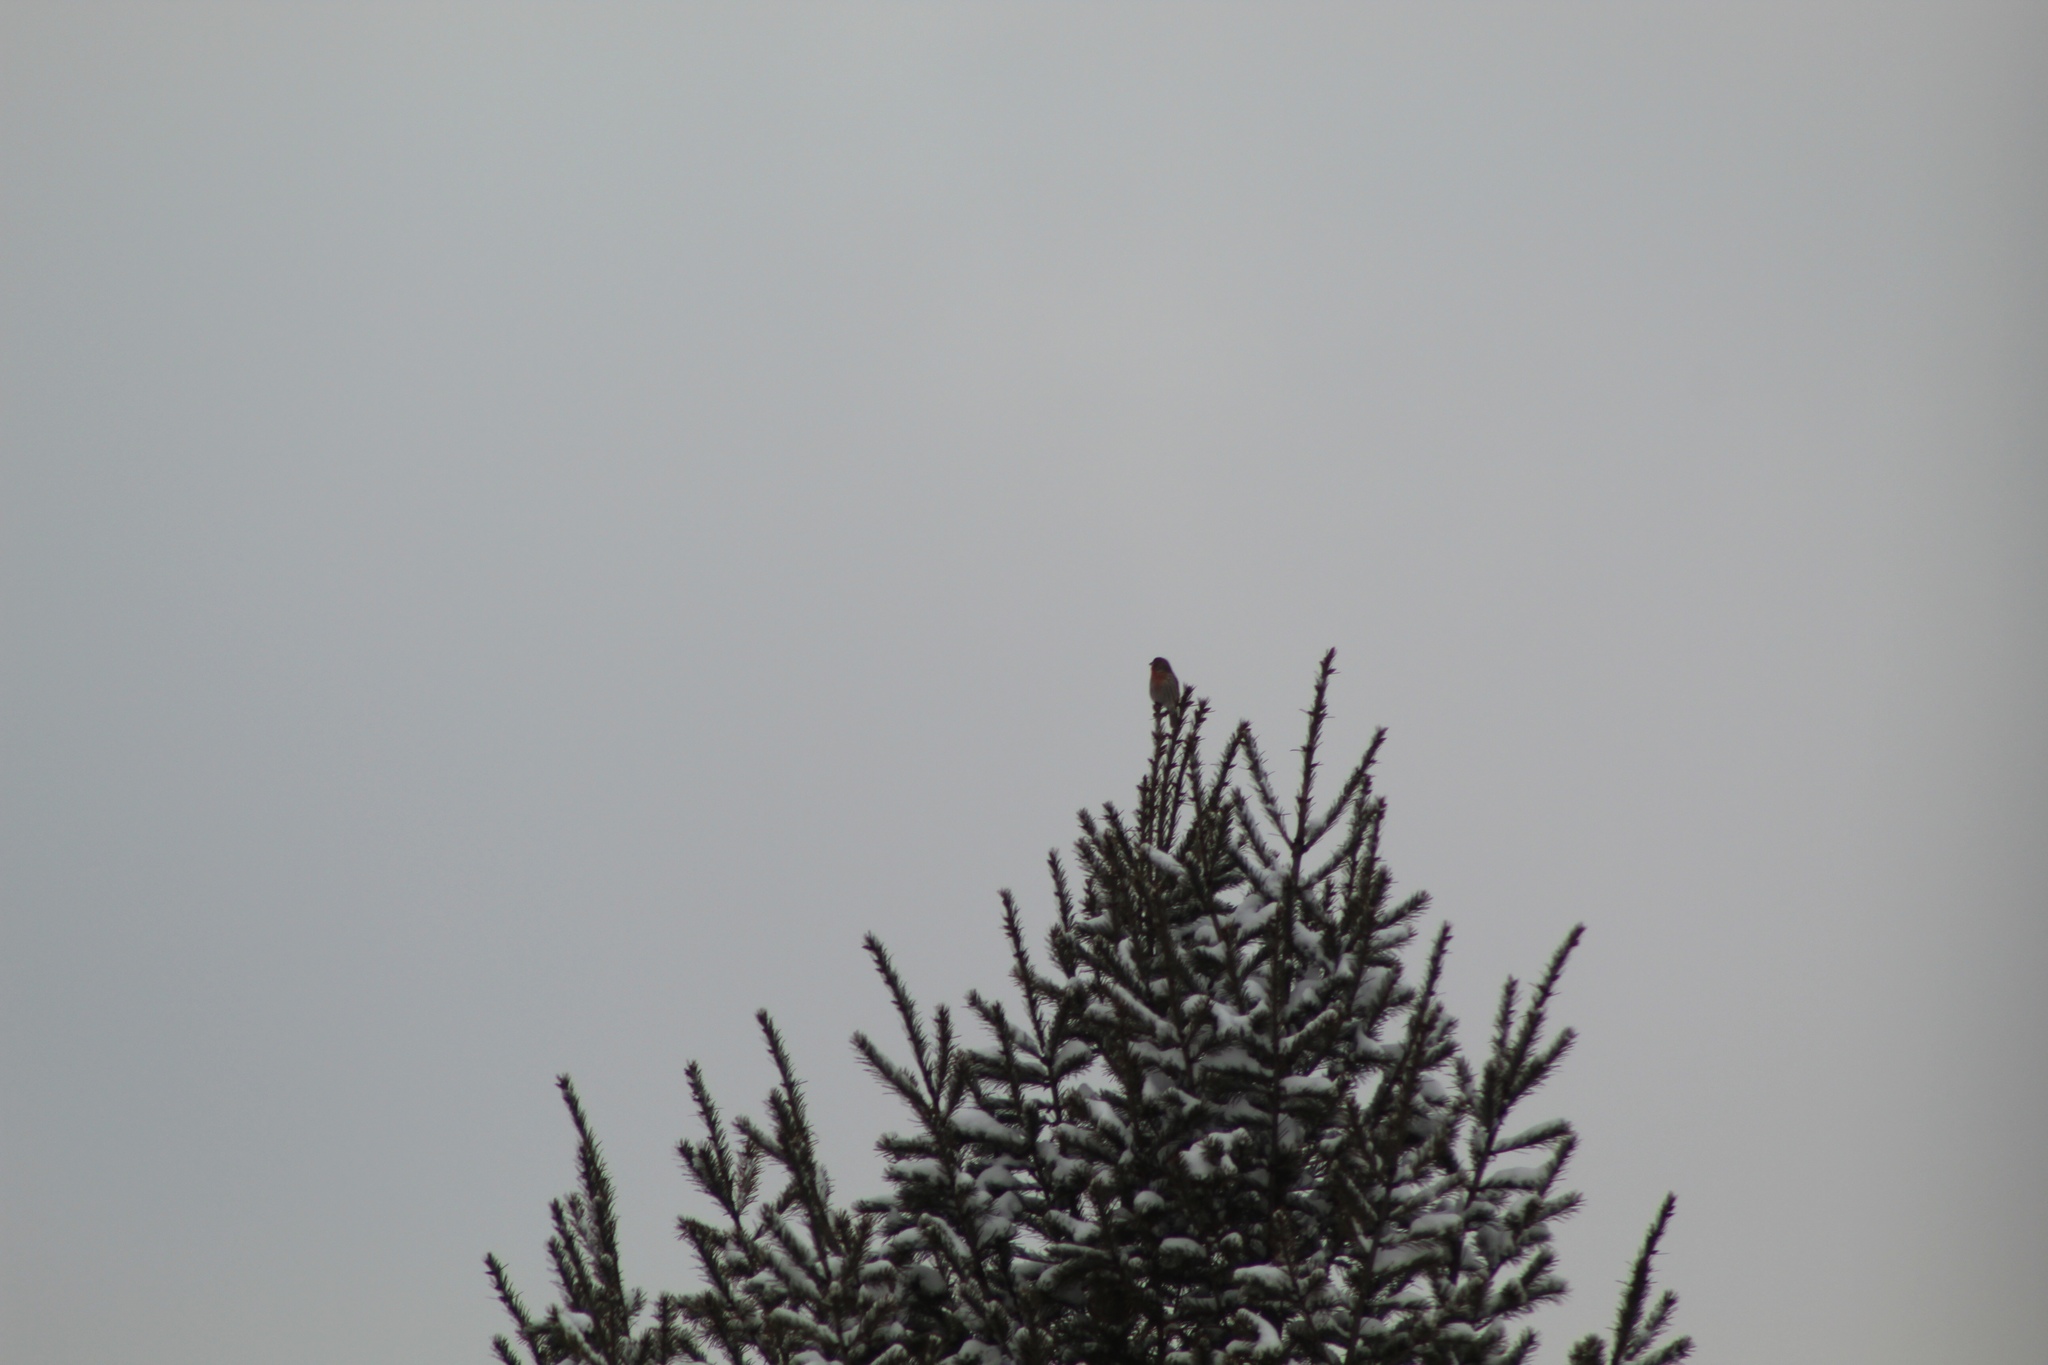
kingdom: Animalia
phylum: Chordata
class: Aves
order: Passeriformes
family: Fringillidae
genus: Haemorhous
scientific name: Haemorhous mexicanus
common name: House finch
